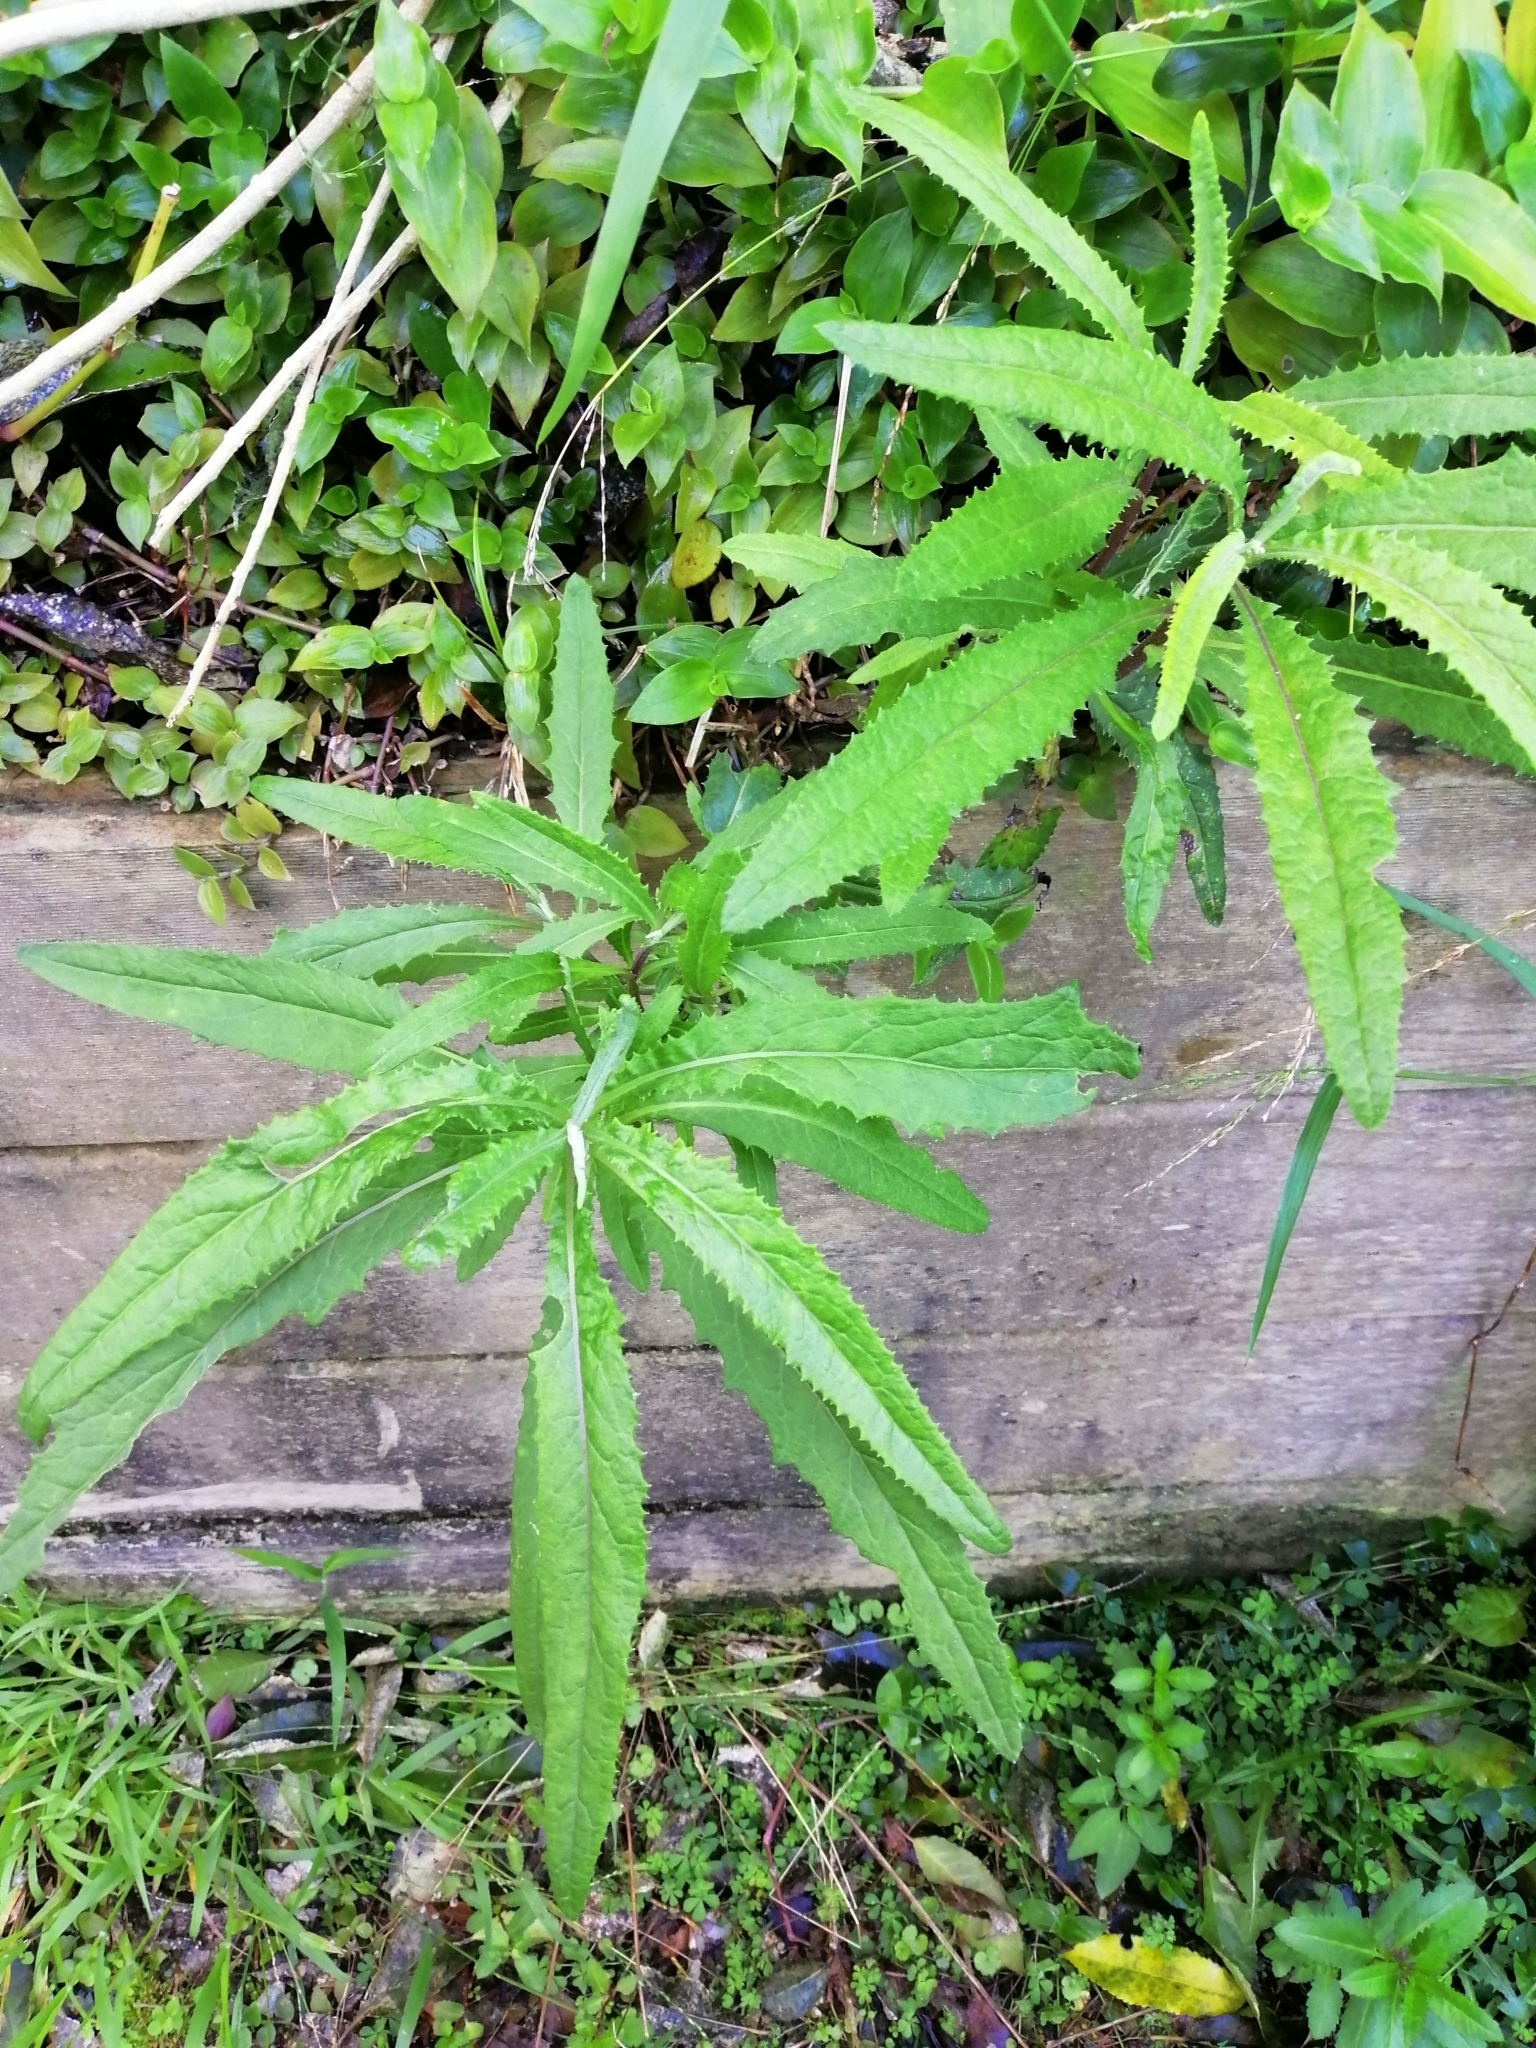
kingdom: Plantae
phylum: Tracheophyta
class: Magnoliopsida
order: Asterales
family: Asteraceae
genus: Senecio
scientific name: Senecio minimus
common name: Toothed fireweed
